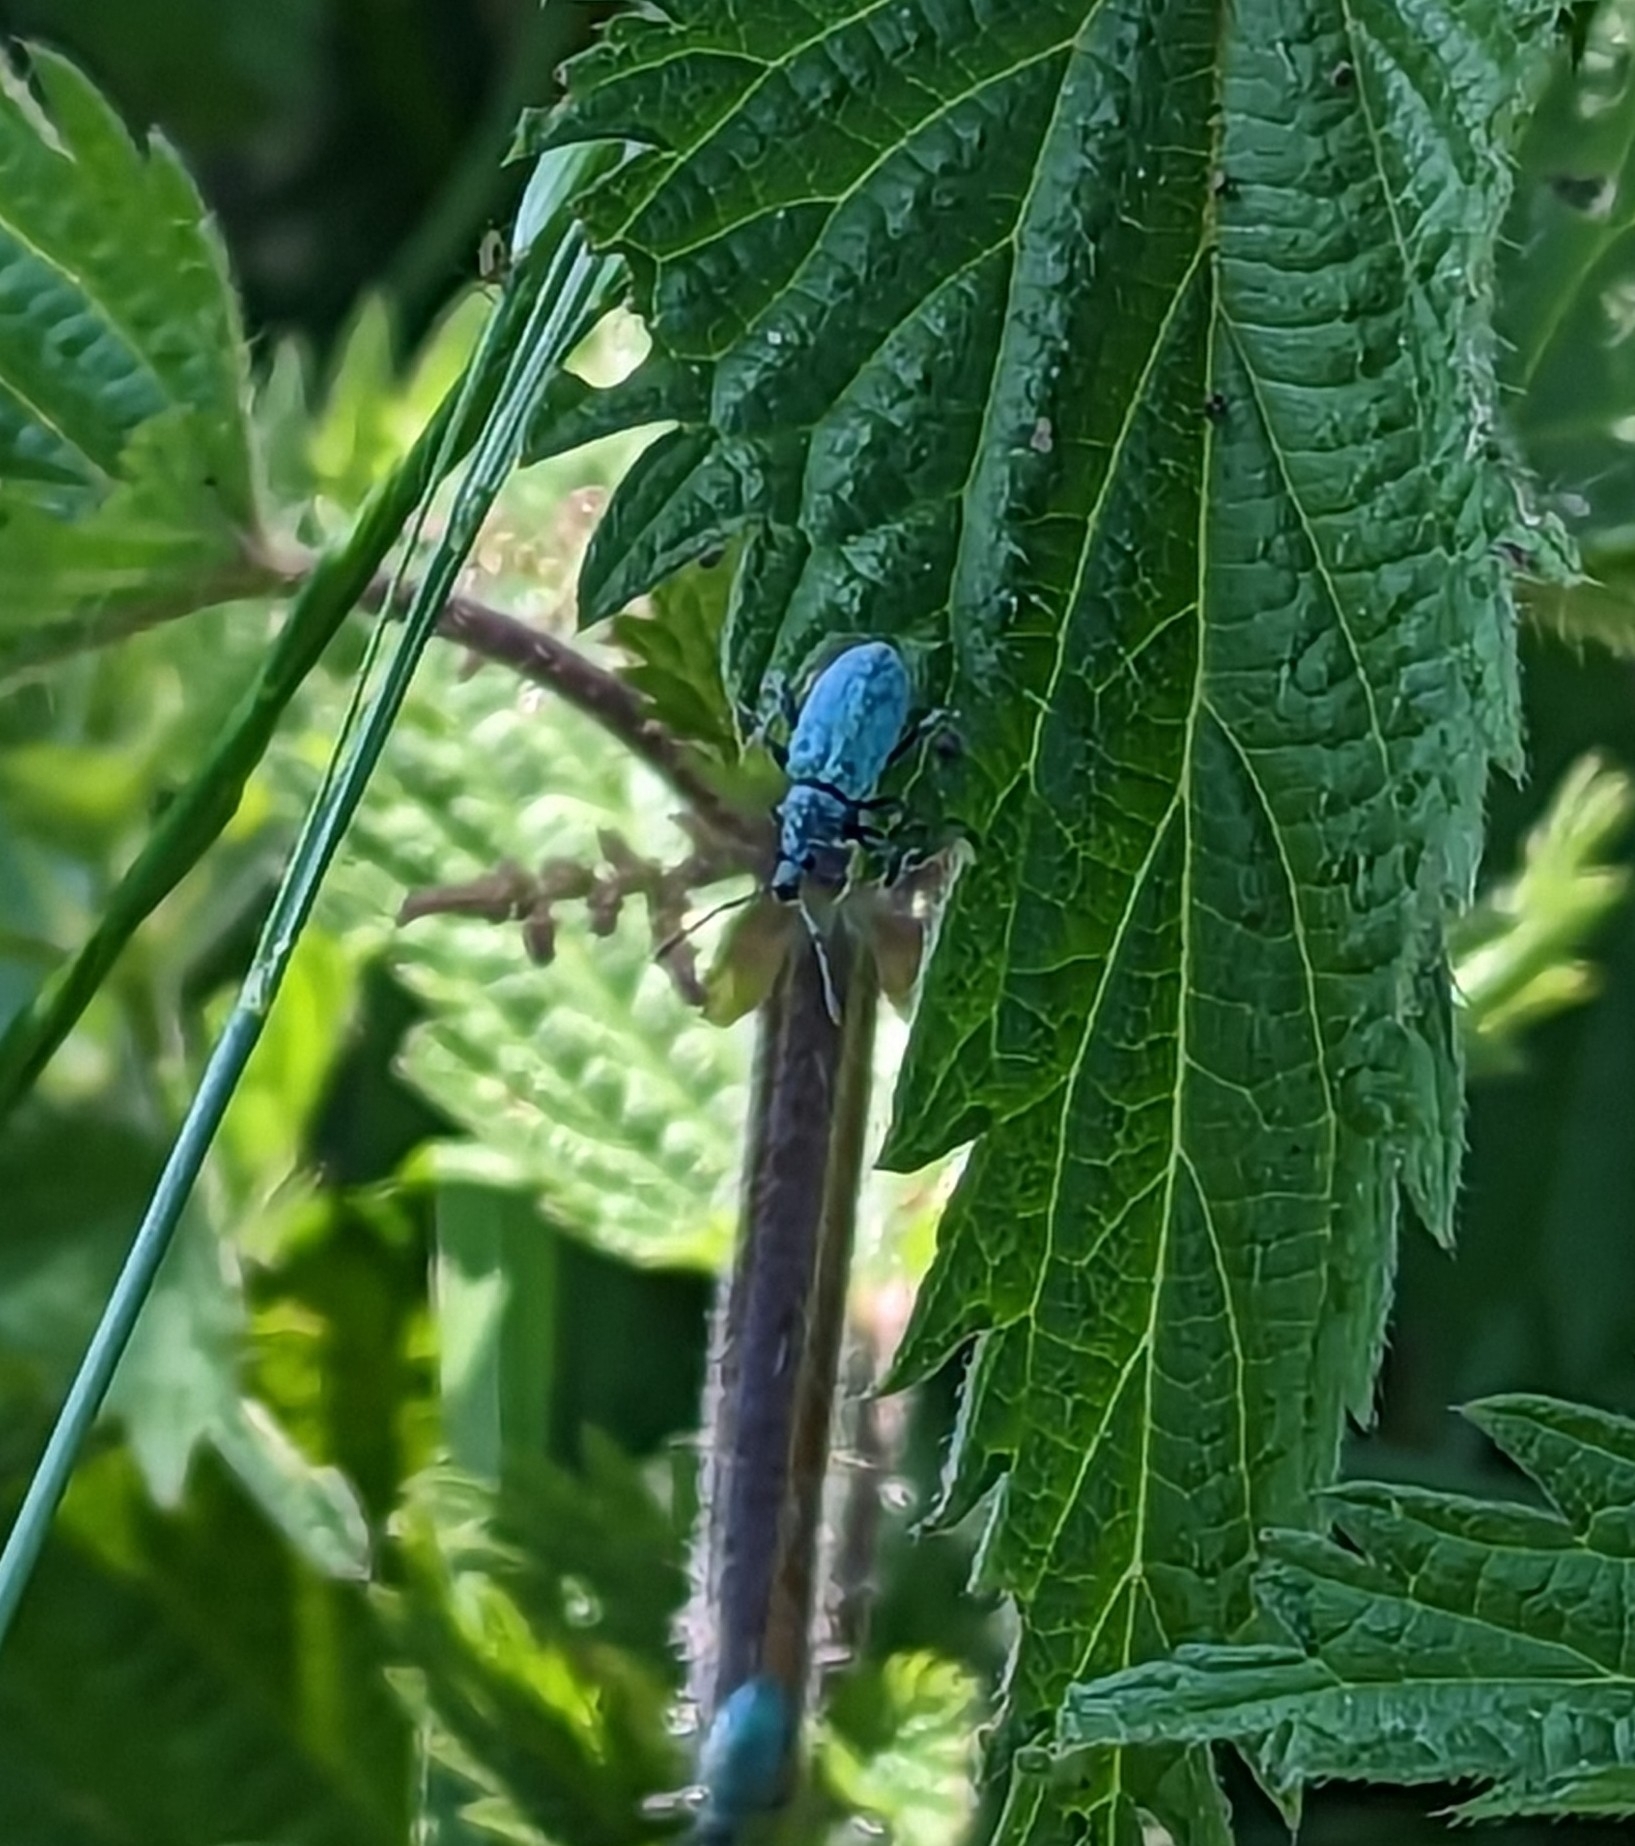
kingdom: Animalia
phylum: Arthropoda
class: Insecta
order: Coleoptera
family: Curculionidae
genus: Phyllobius
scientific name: Phyllobius pomaceus
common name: Green nettle weevil
